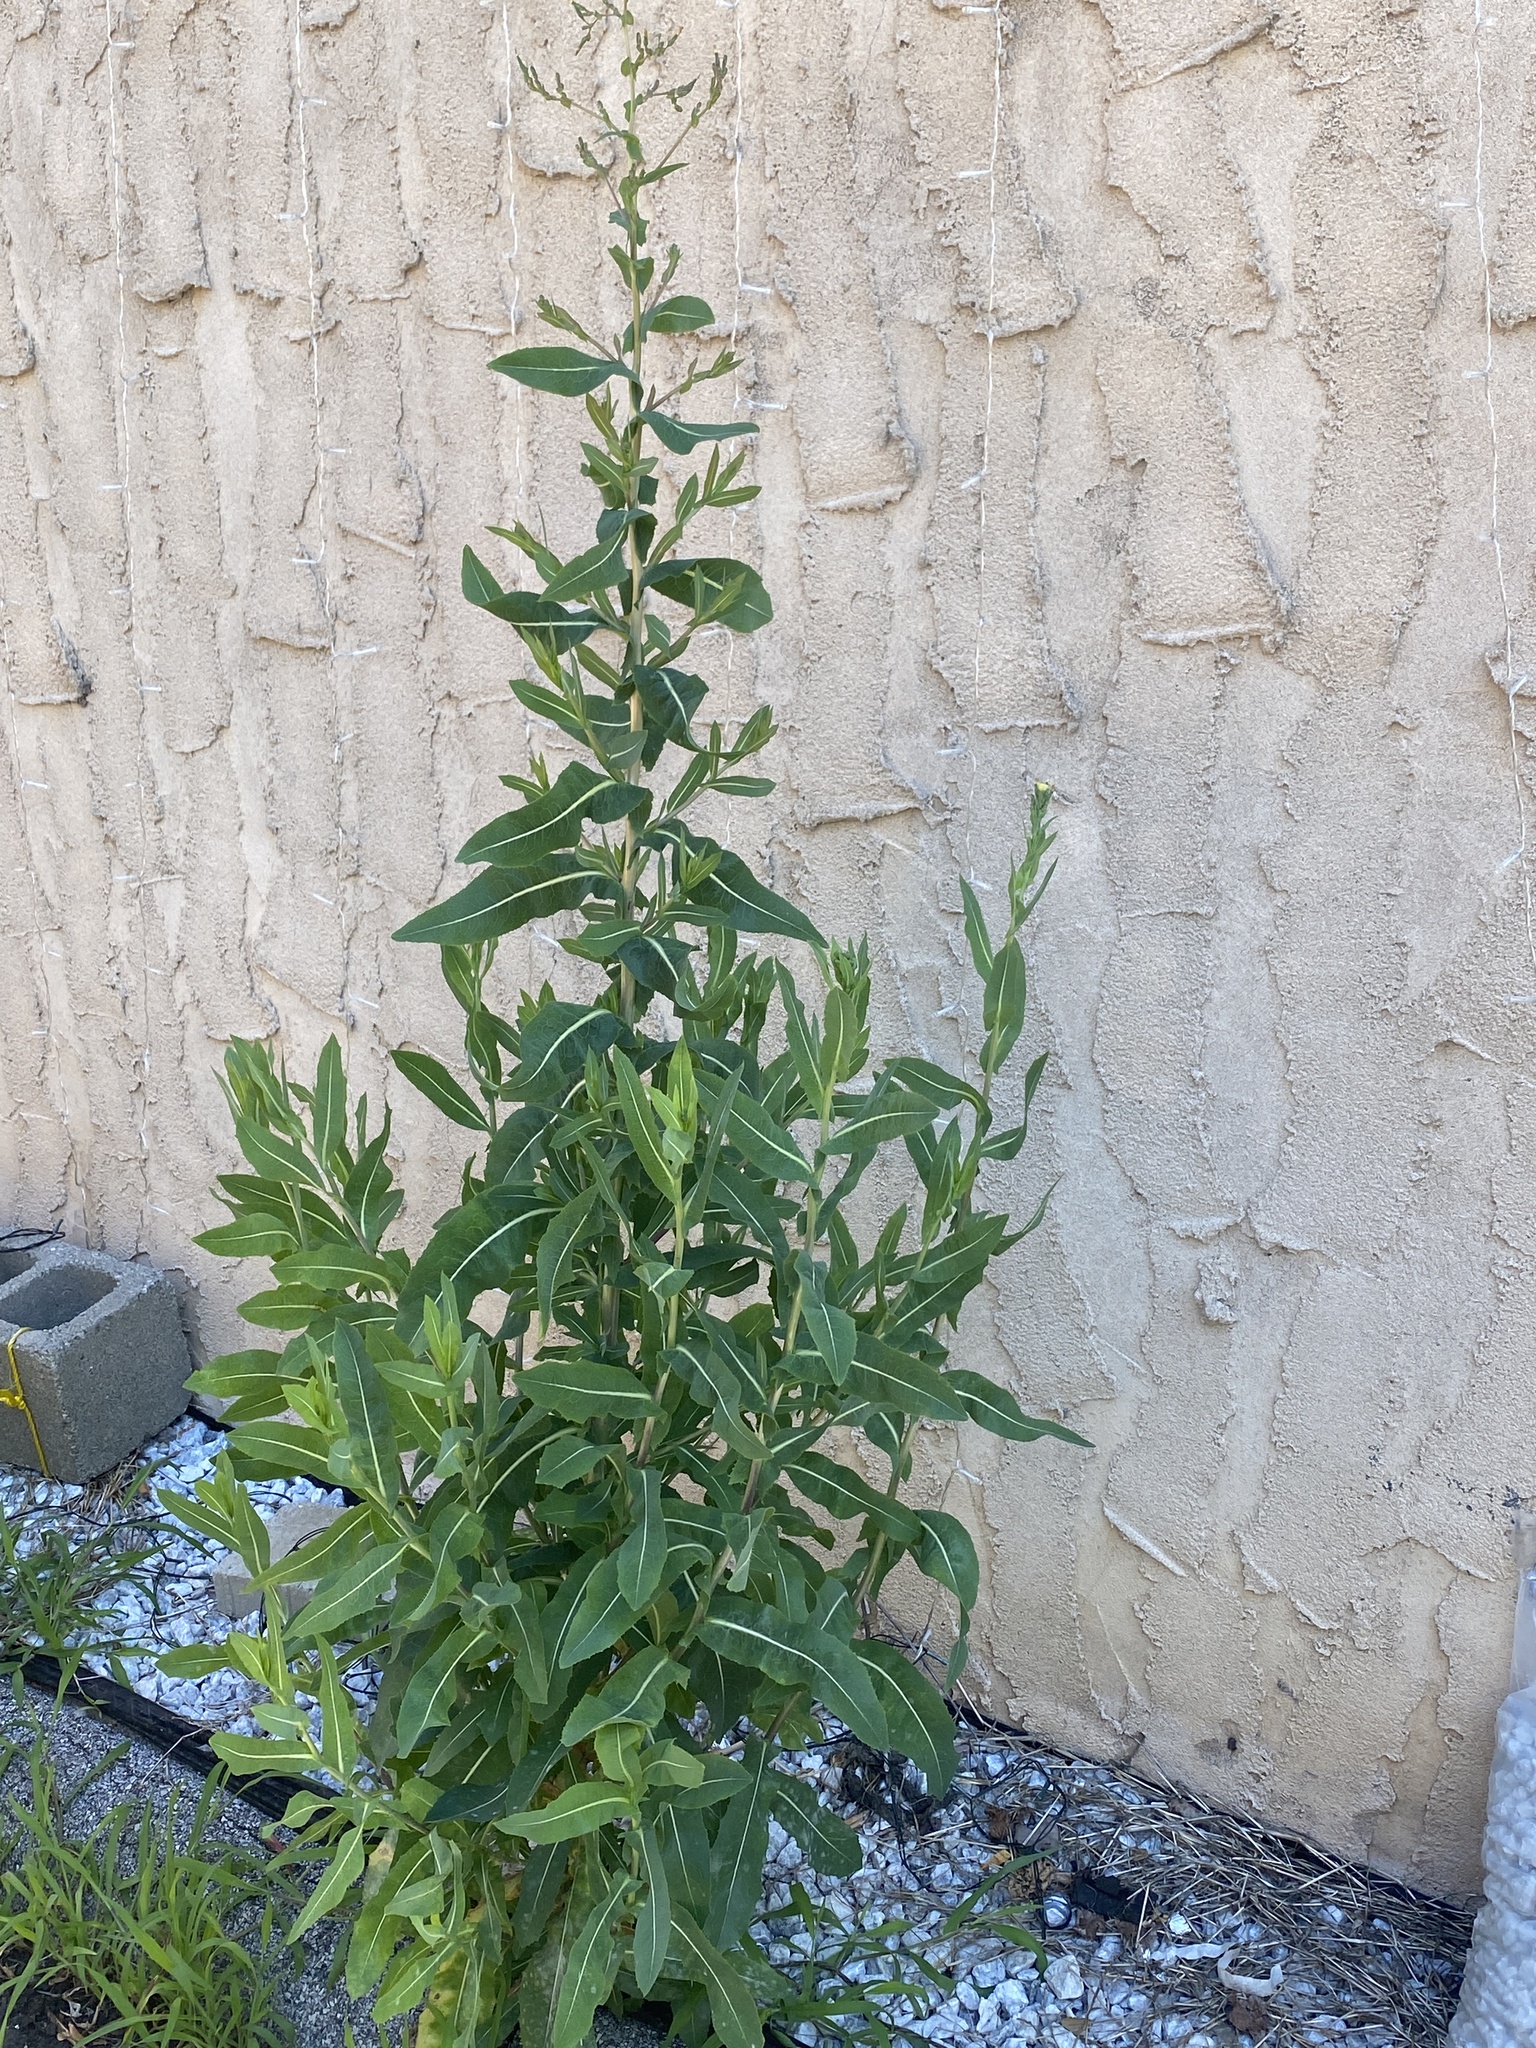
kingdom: Plantae
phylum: Tracheophyta
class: Magnoliopsida
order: Asterales
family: Asteraceae
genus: Lactuca
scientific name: Lactuca serriola
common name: Prickly lettuce
